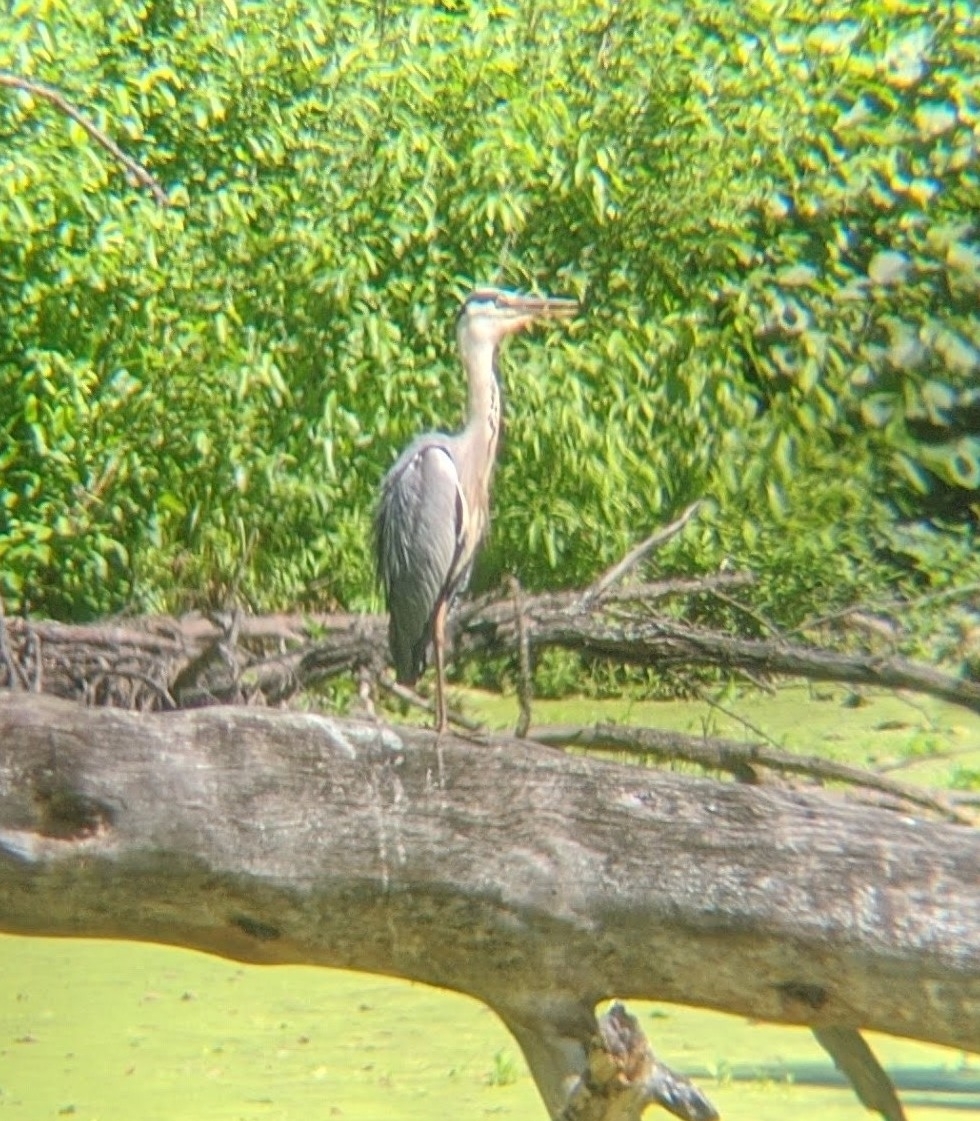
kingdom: Animalia
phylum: Chordata
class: Aves
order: Pelecaniformes
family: Ardeidae
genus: Ardea
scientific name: Ardea cinerea
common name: Grey heron
